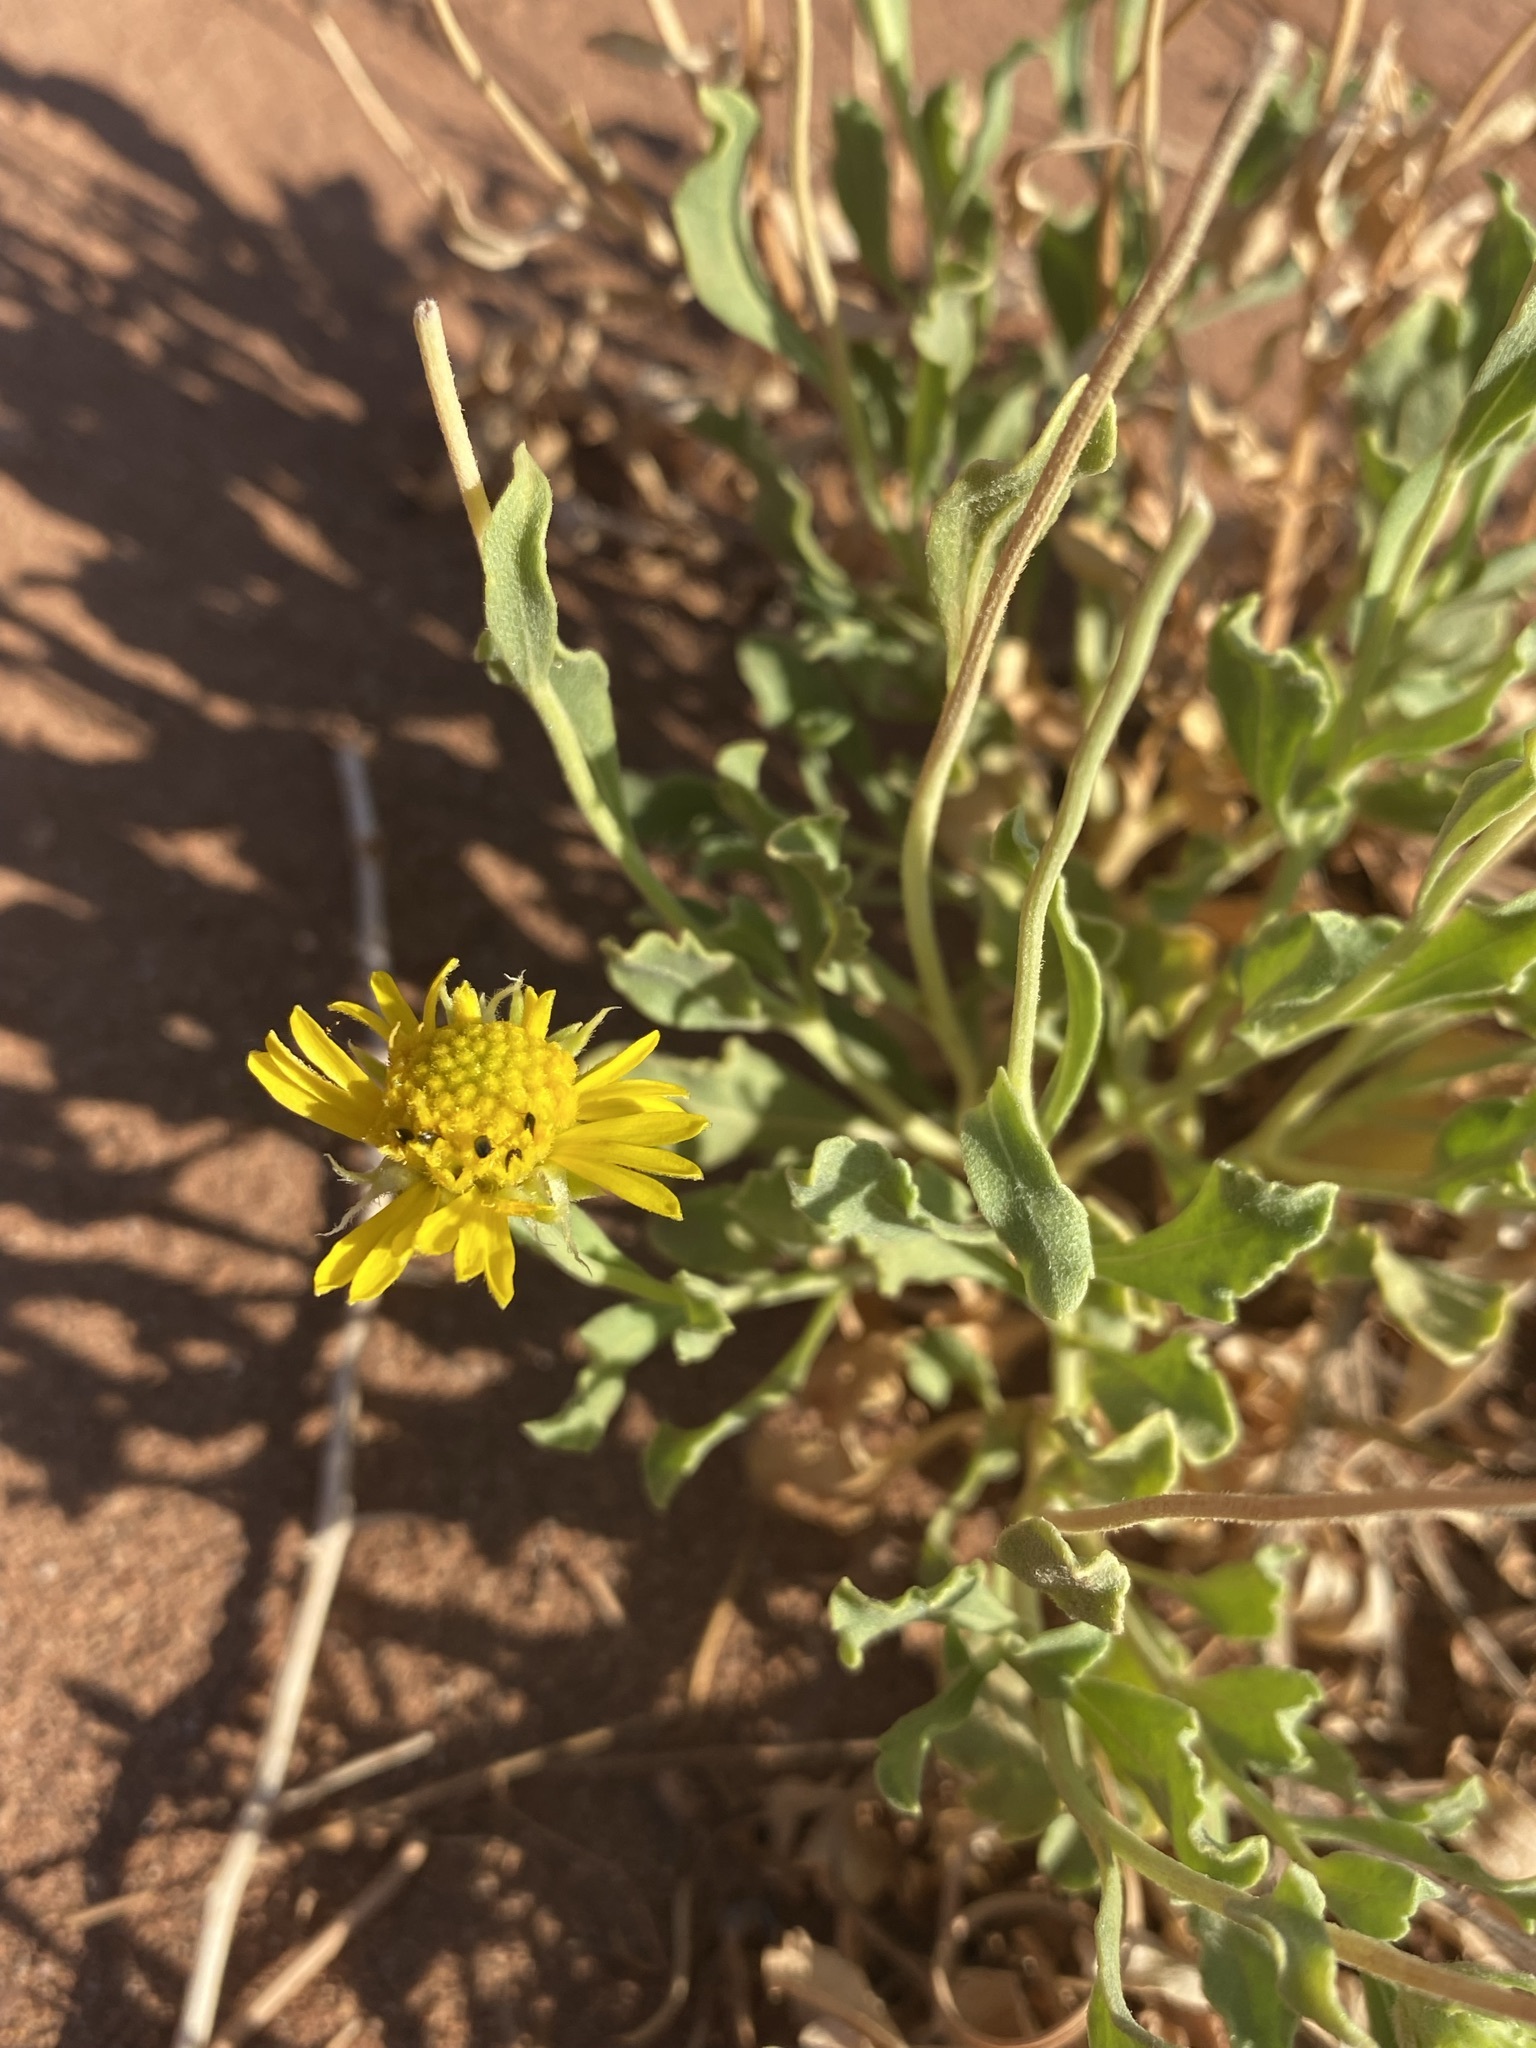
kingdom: Plantae
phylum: Tracheophyta
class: Magnoliopsida
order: Asterales
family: Asteraceae
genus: Gaillardia
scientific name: Gaillardia spathulata
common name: Basin blanket-flower
